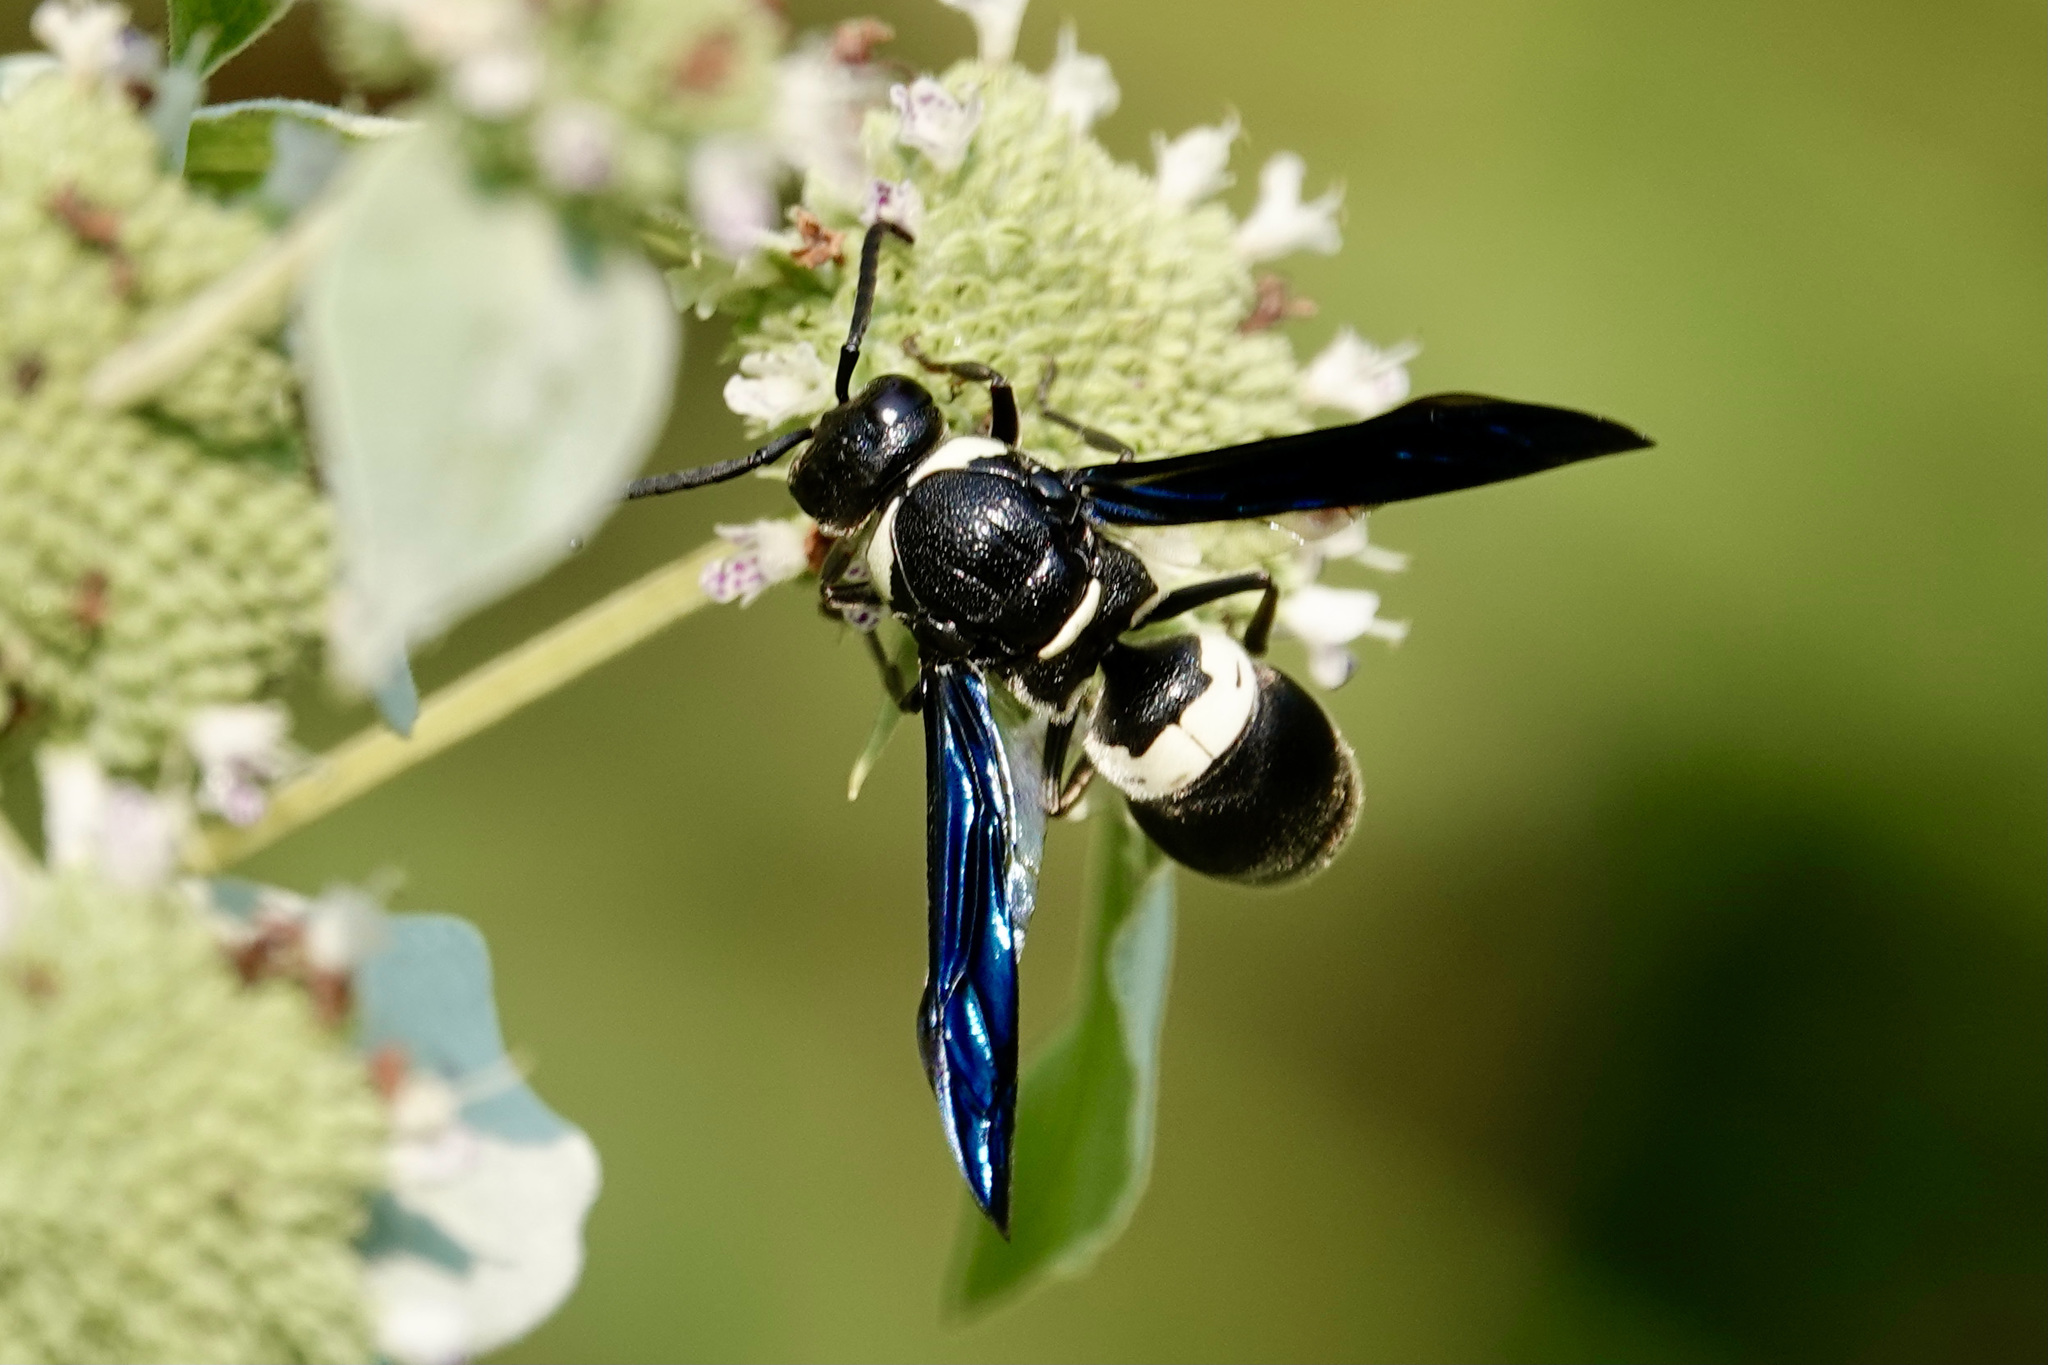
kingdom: Animalia
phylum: Arthropoda
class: Insecta
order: Hymenoptera
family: Eumenidae
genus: Monobia
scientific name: Monobia quadridens
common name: Four-toothed mason wasp
